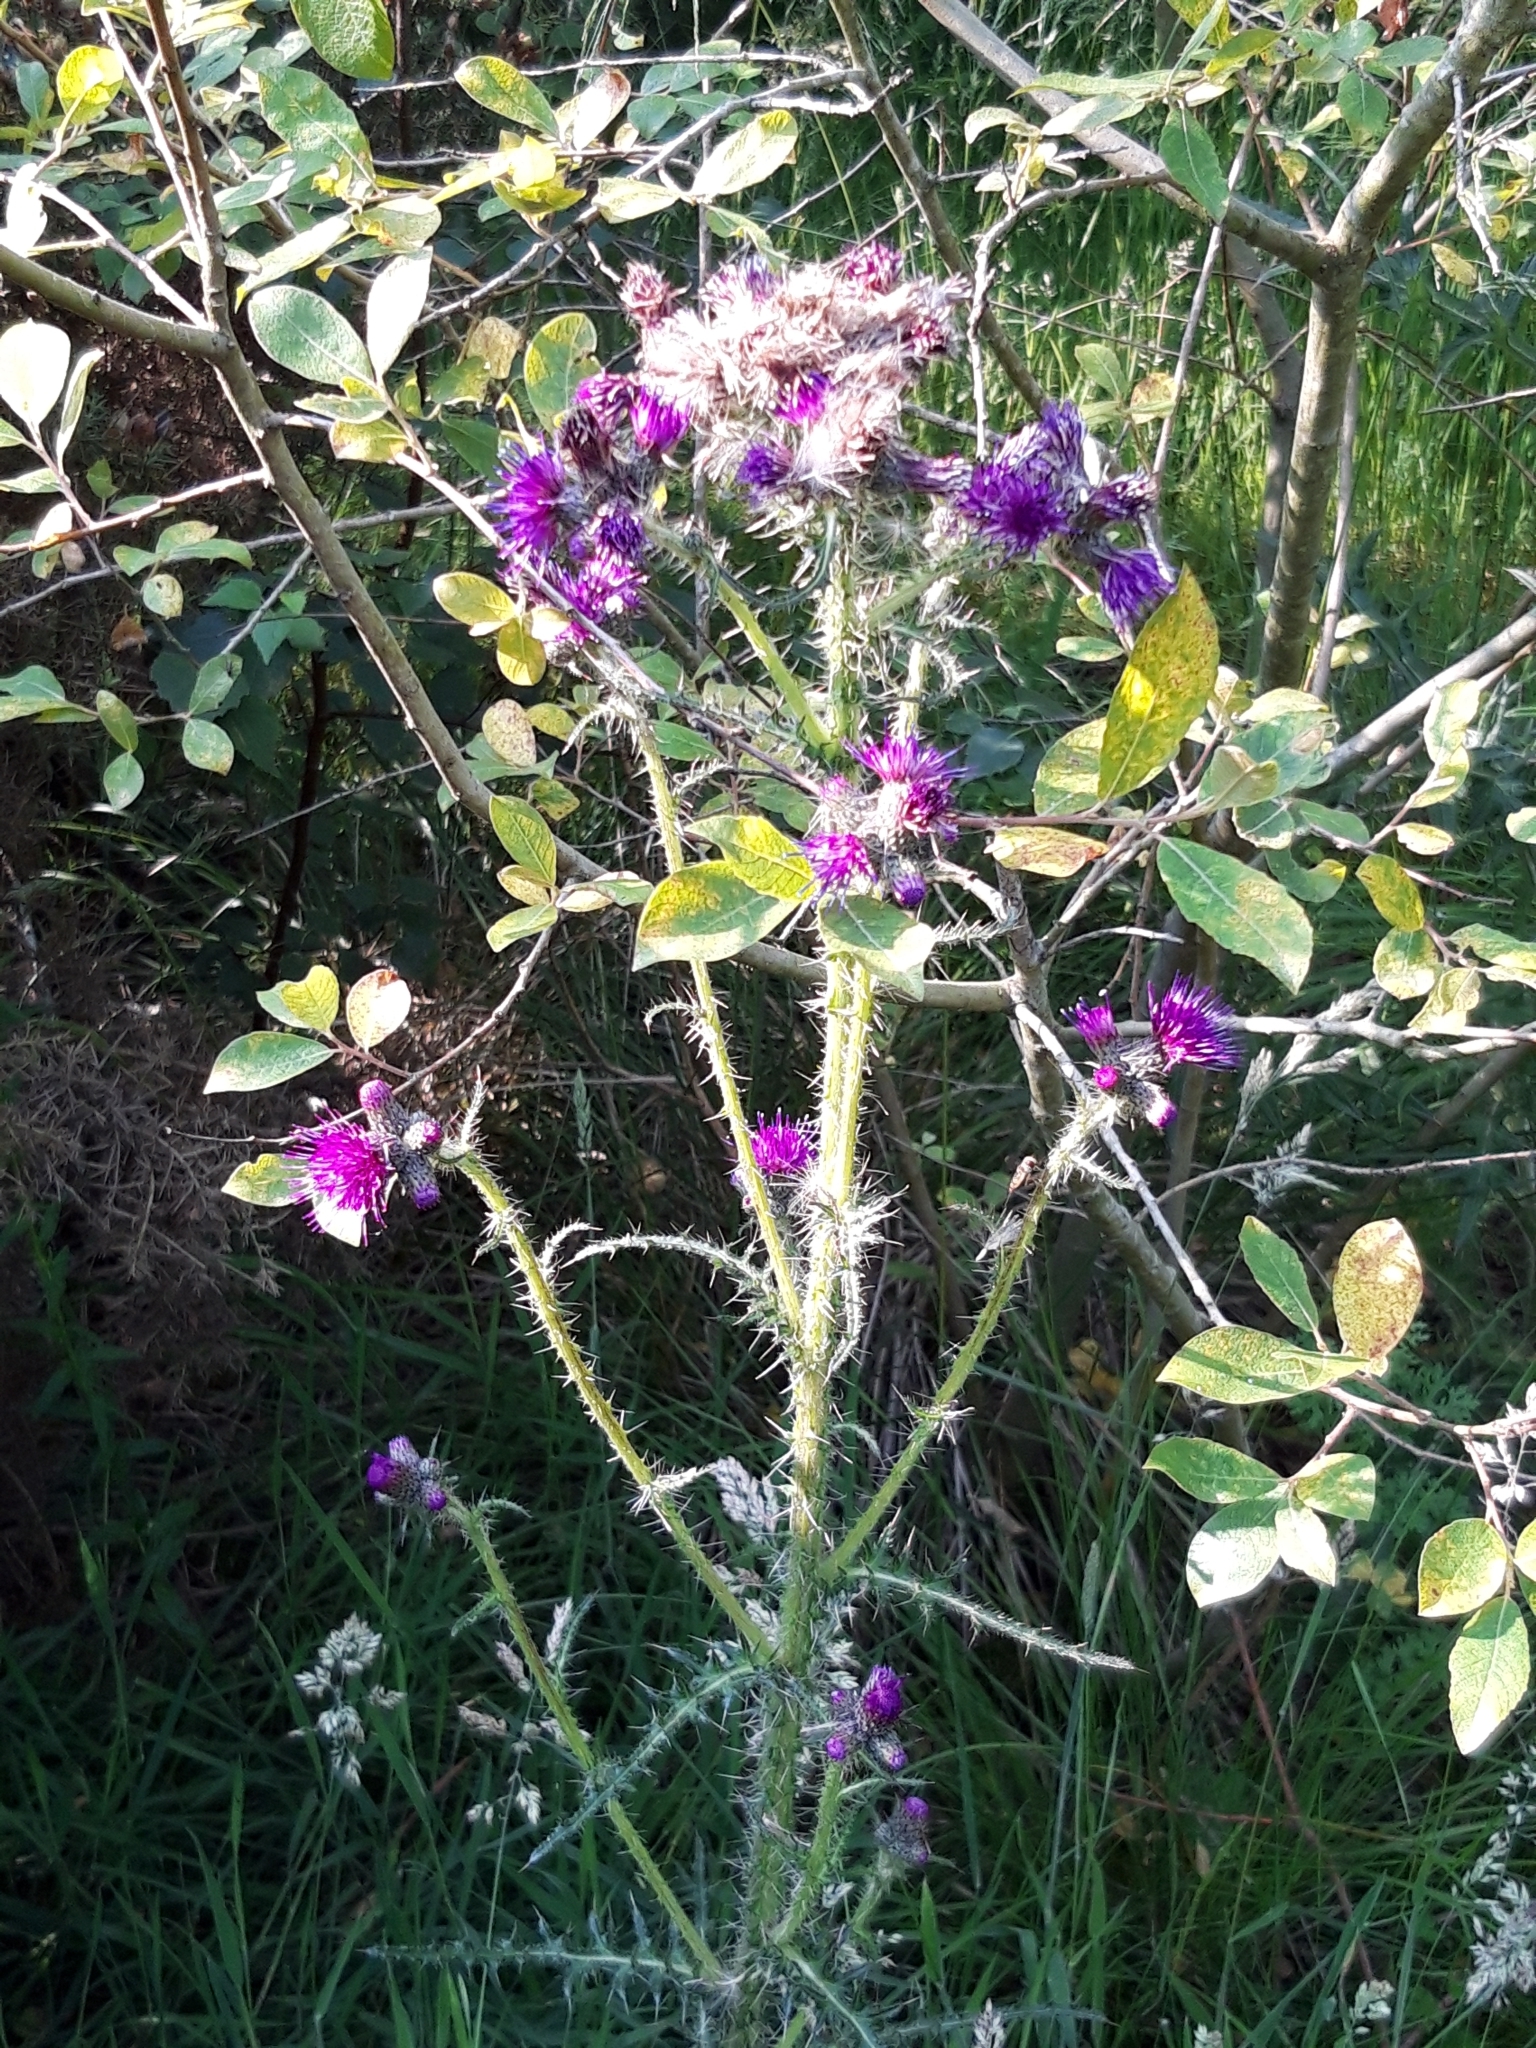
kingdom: Plantae
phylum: Tracheophyta
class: Magnoliopsida
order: Asterales
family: Asteraceae
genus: Cirsium
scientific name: Cirsium palustre
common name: Marsh thistle
